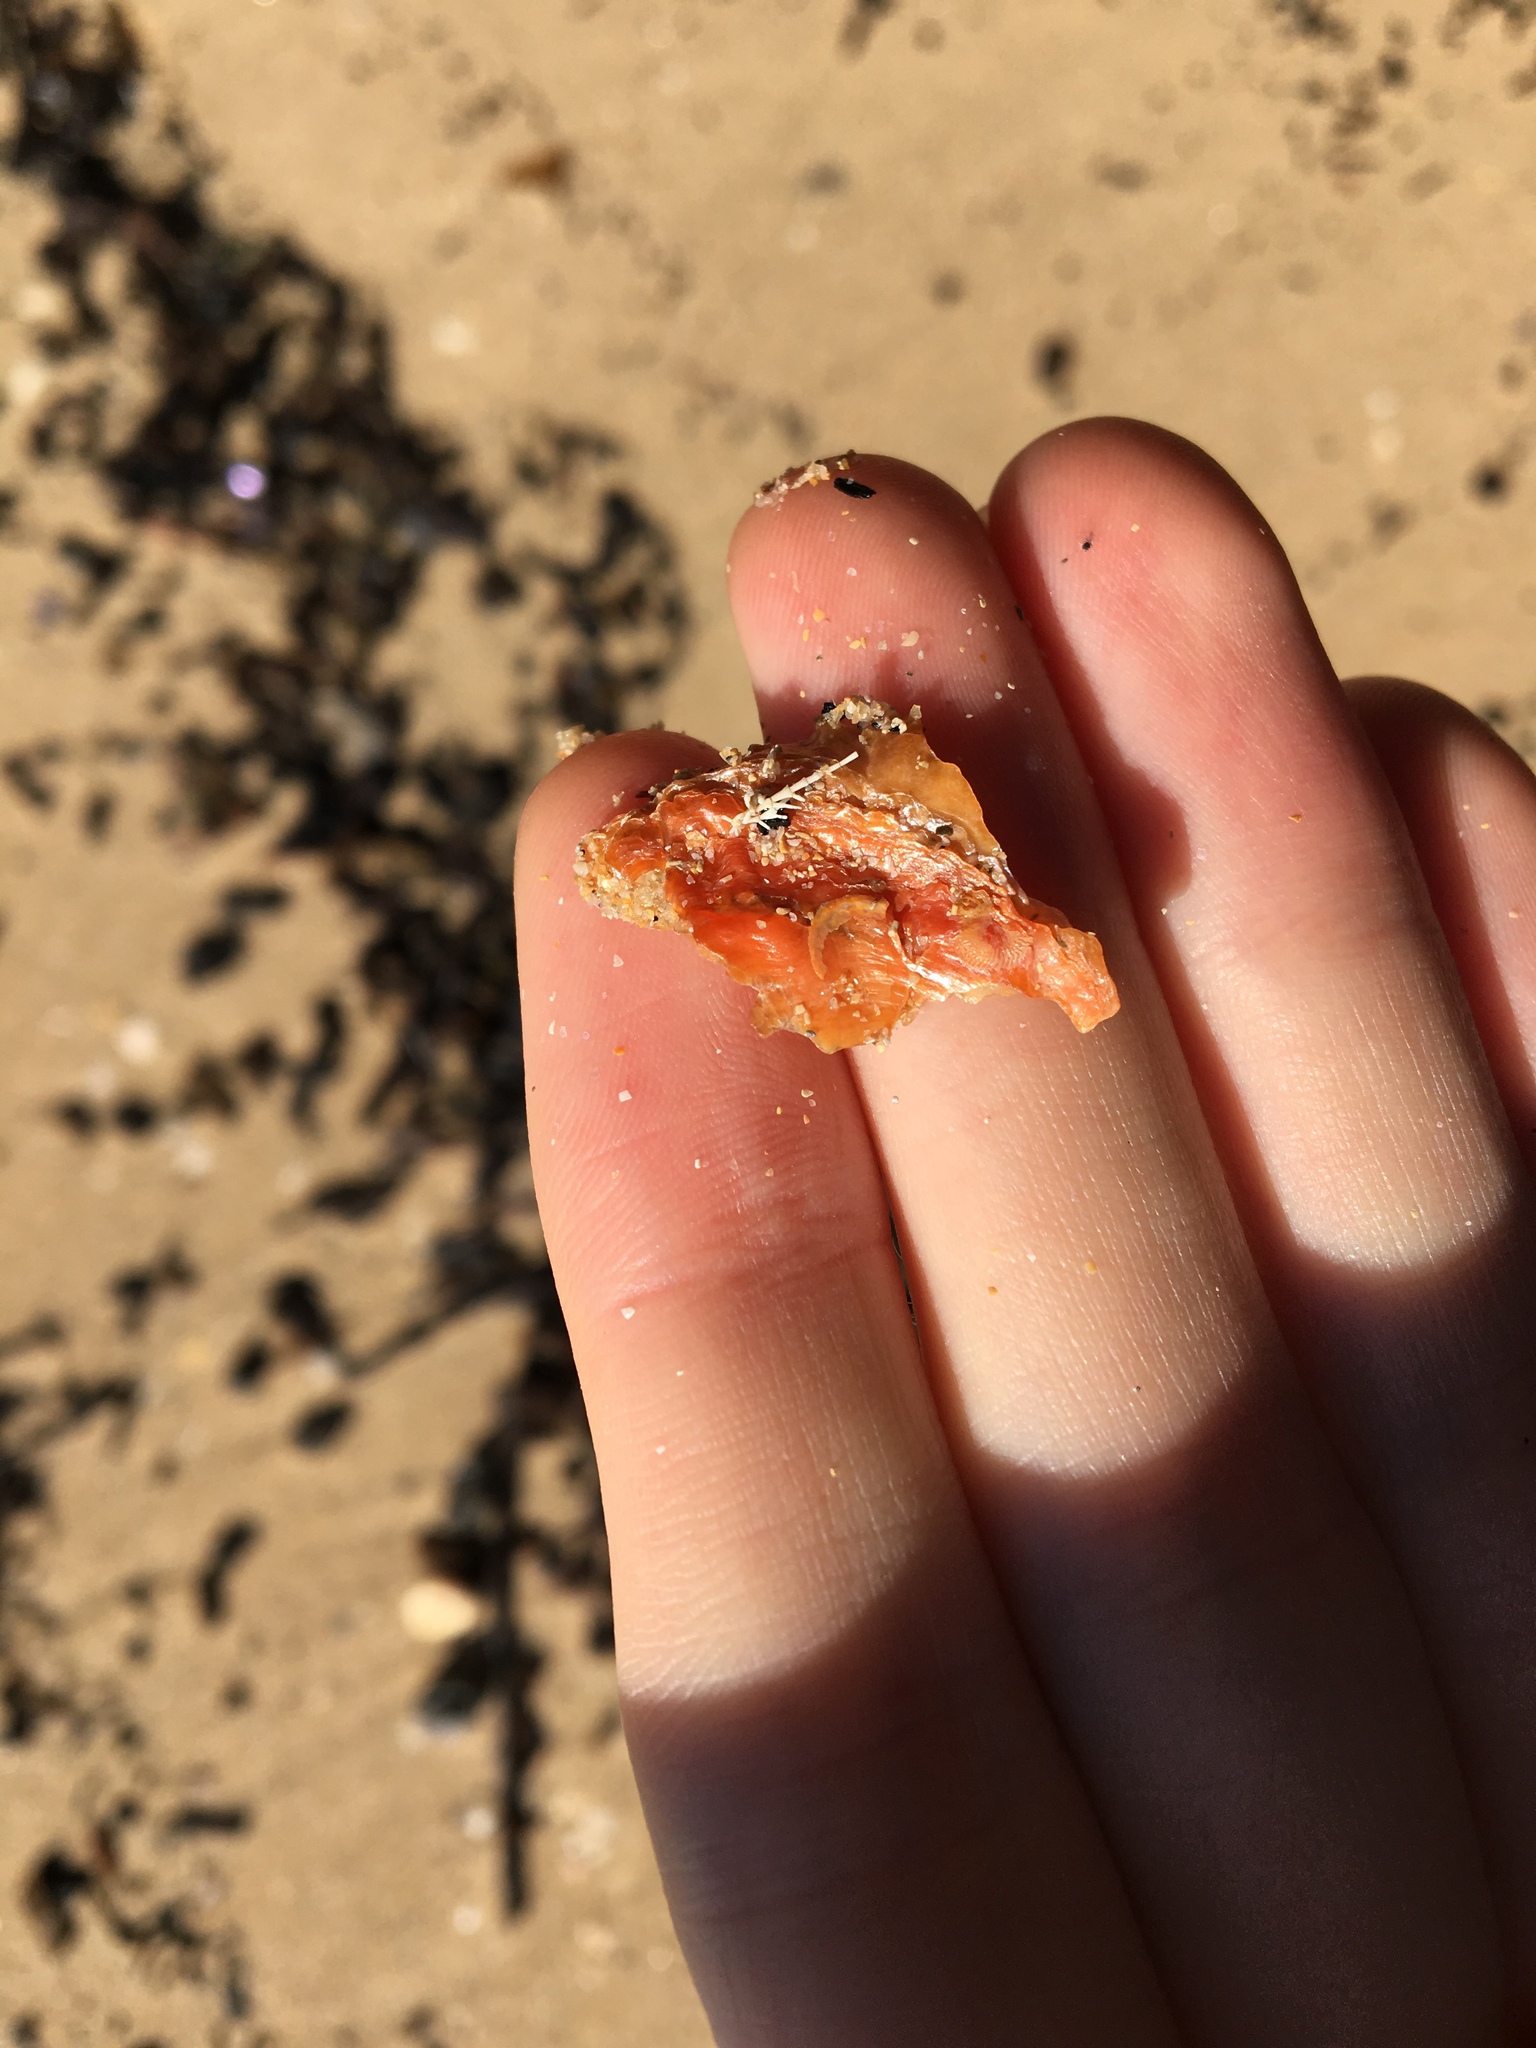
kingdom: Animalia
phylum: Mollusca
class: Bivalvia
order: Pectinida
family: Anomiidae
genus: Anomia
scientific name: Anomia trigonopsis
